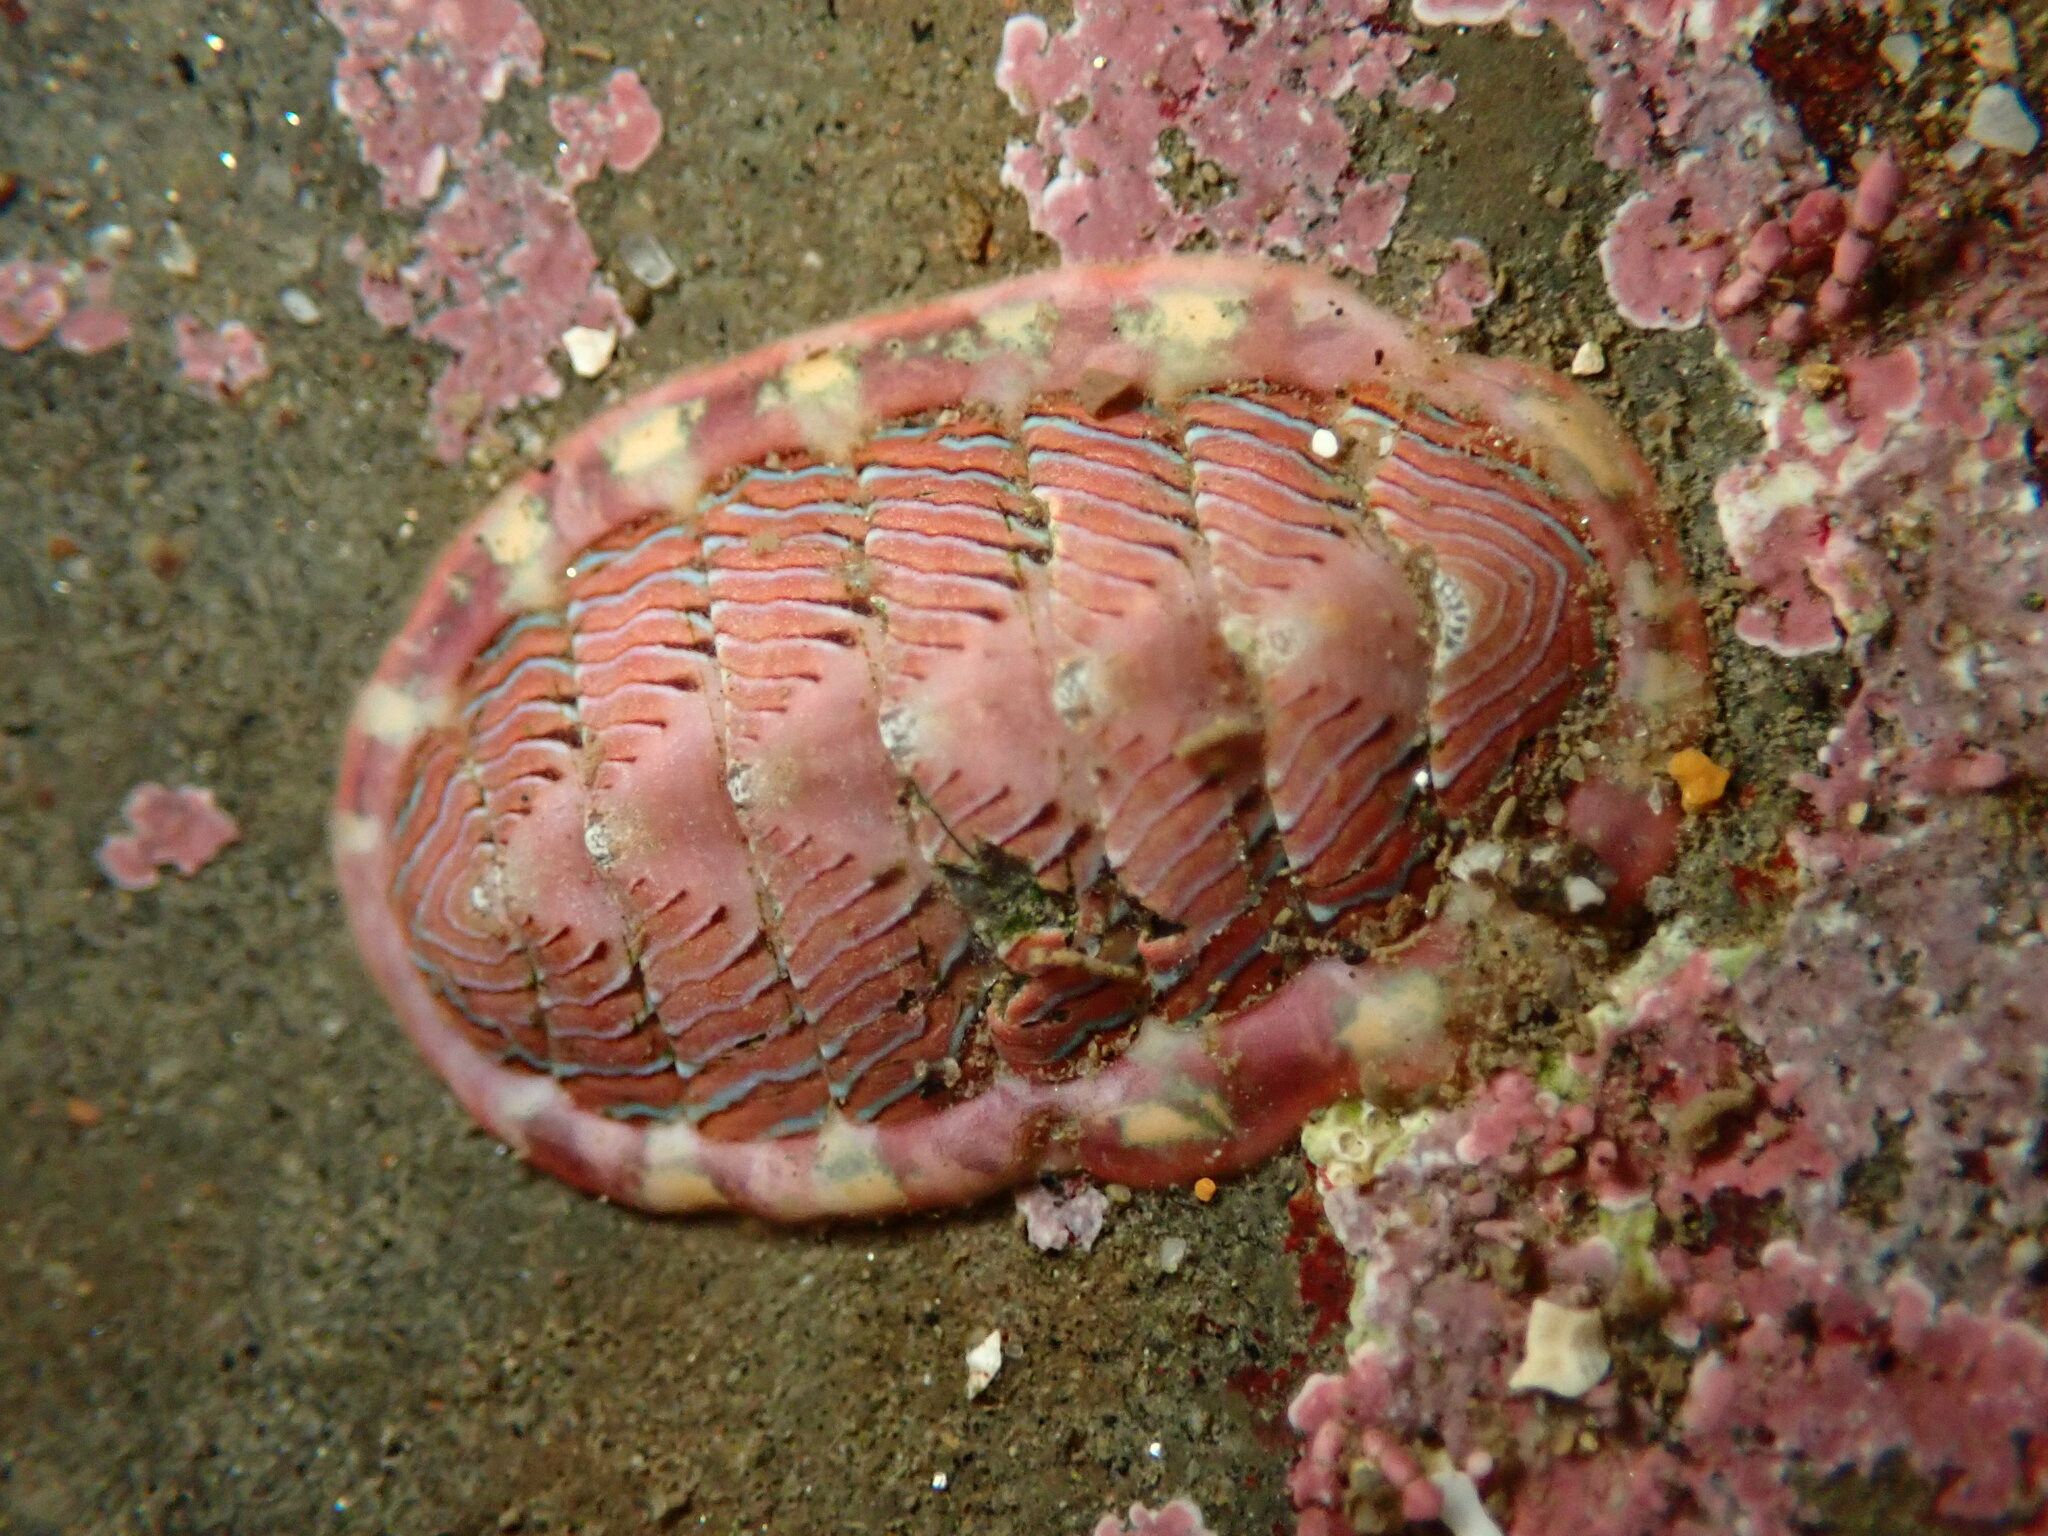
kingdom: Animalia
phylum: Mollusca
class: Polyplacophora
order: Chitonida
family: Tonicellidae
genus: Tonicella
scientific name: Tonicella lineata
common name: Lined chiton
